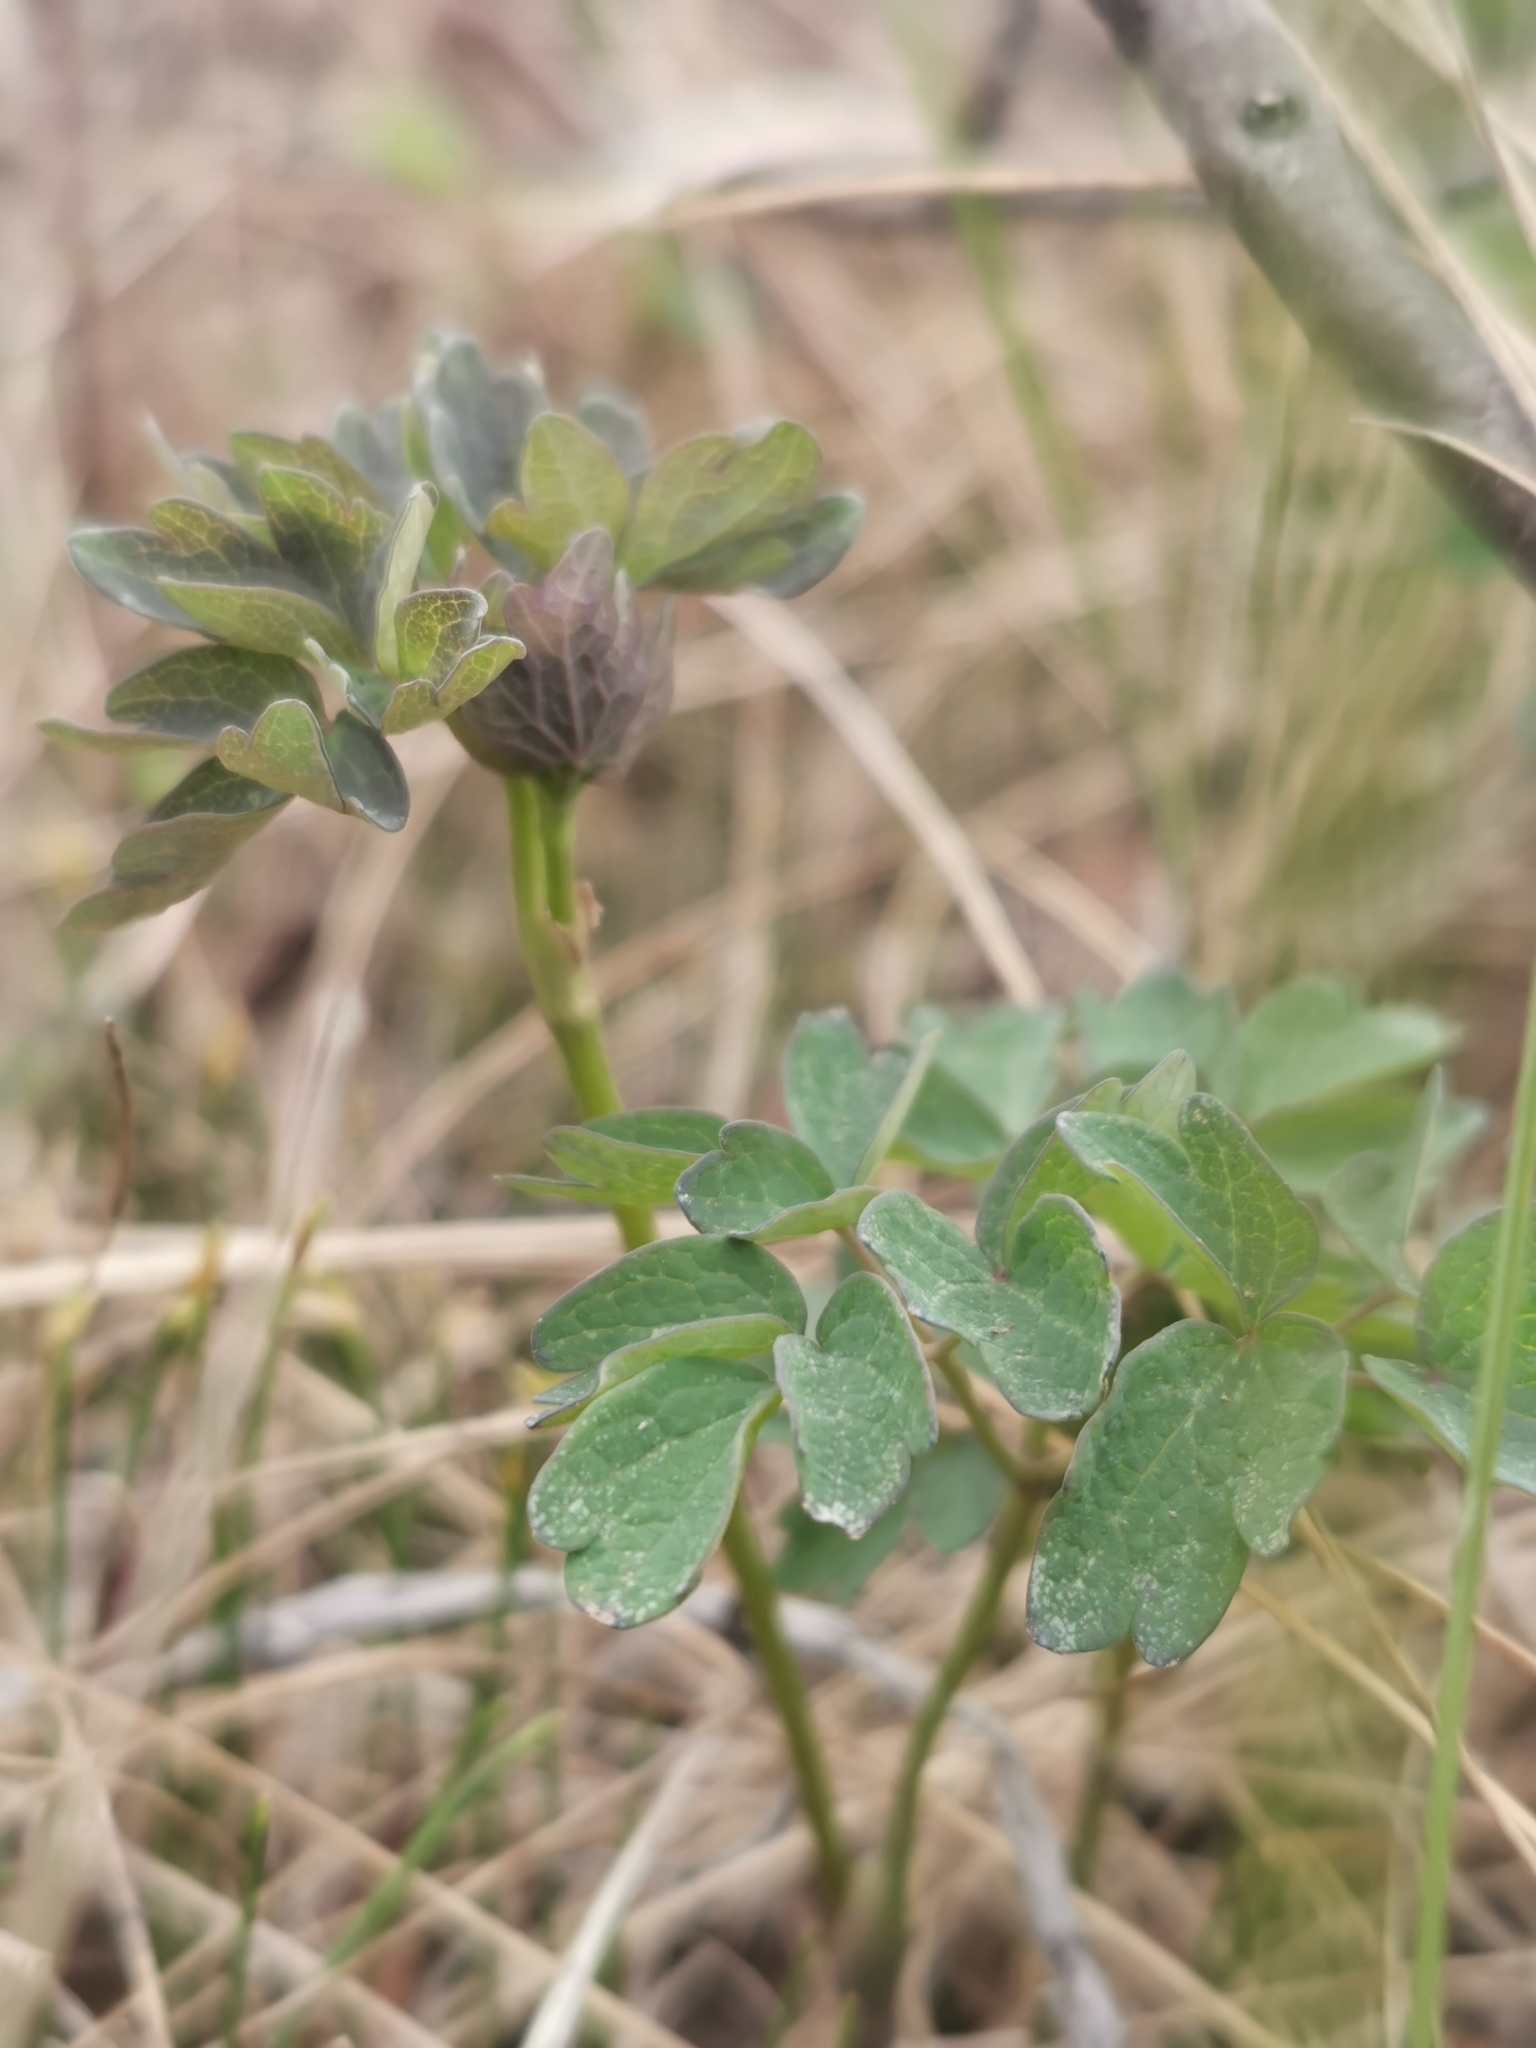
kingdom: Plantae
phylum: Tracheophyta
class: Magnoliopsida
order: Ranunculales
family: Ranunculaceae
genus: Thalictrum
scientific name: Thalictrum minus
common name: Lesser meadow-rue
